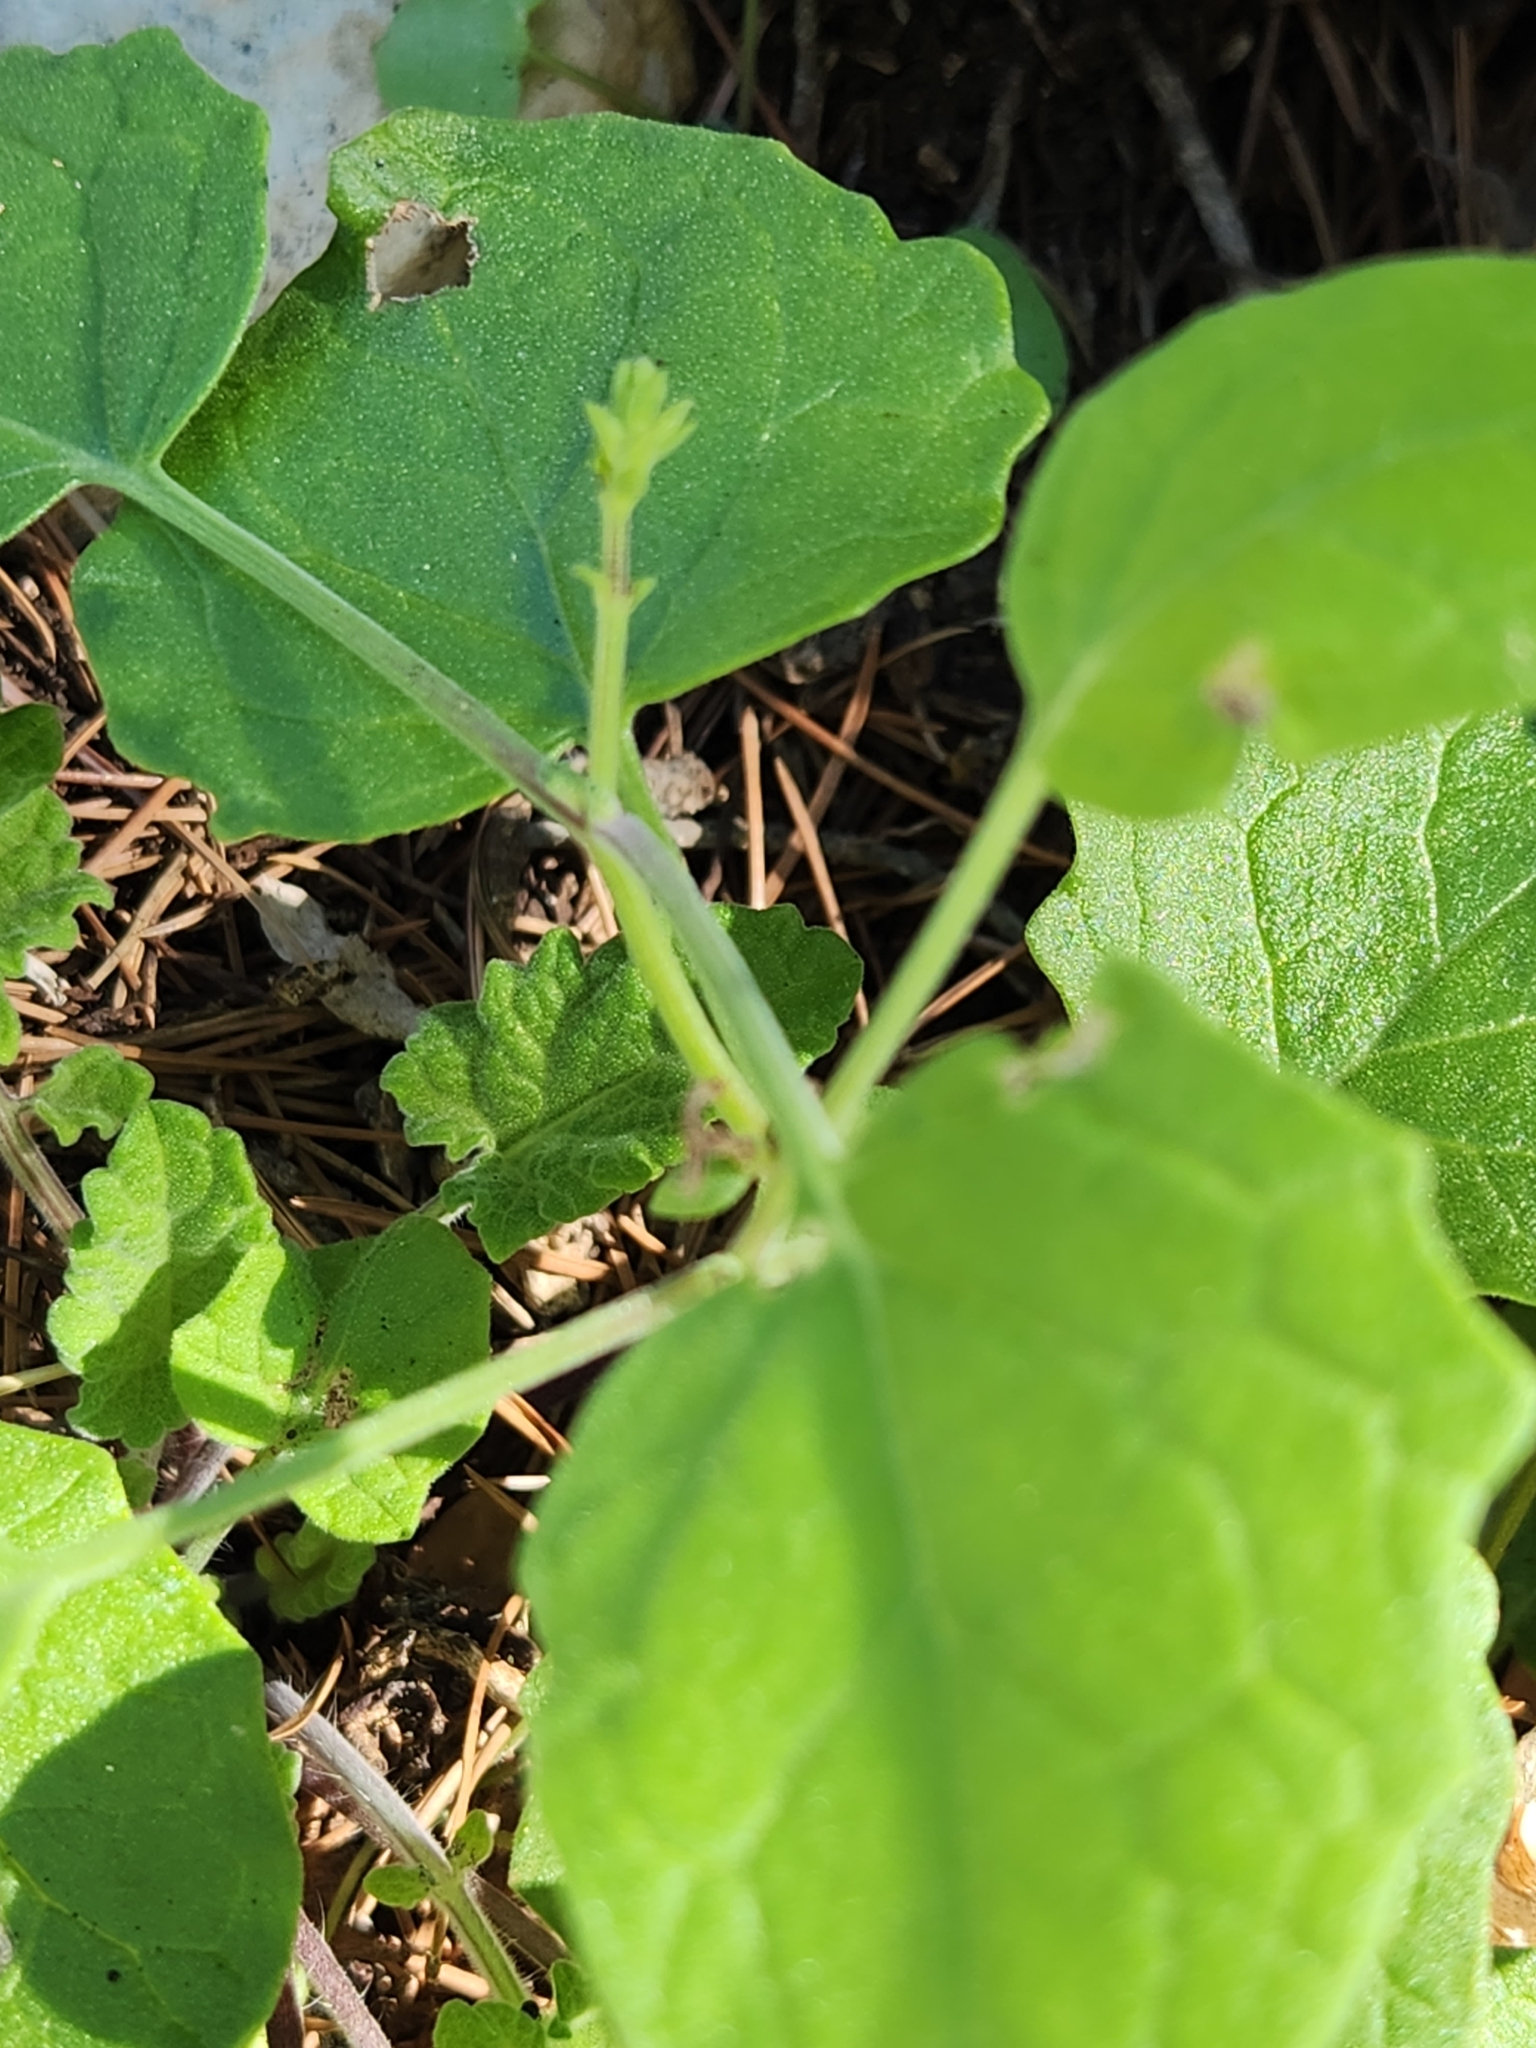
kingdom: Plantae
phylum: Tracheophyta
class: Magnoliopsida
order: Lamiales
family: Lamiaceae
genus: Salvia
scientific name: Salvia roemeriana
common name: Cedar sage
